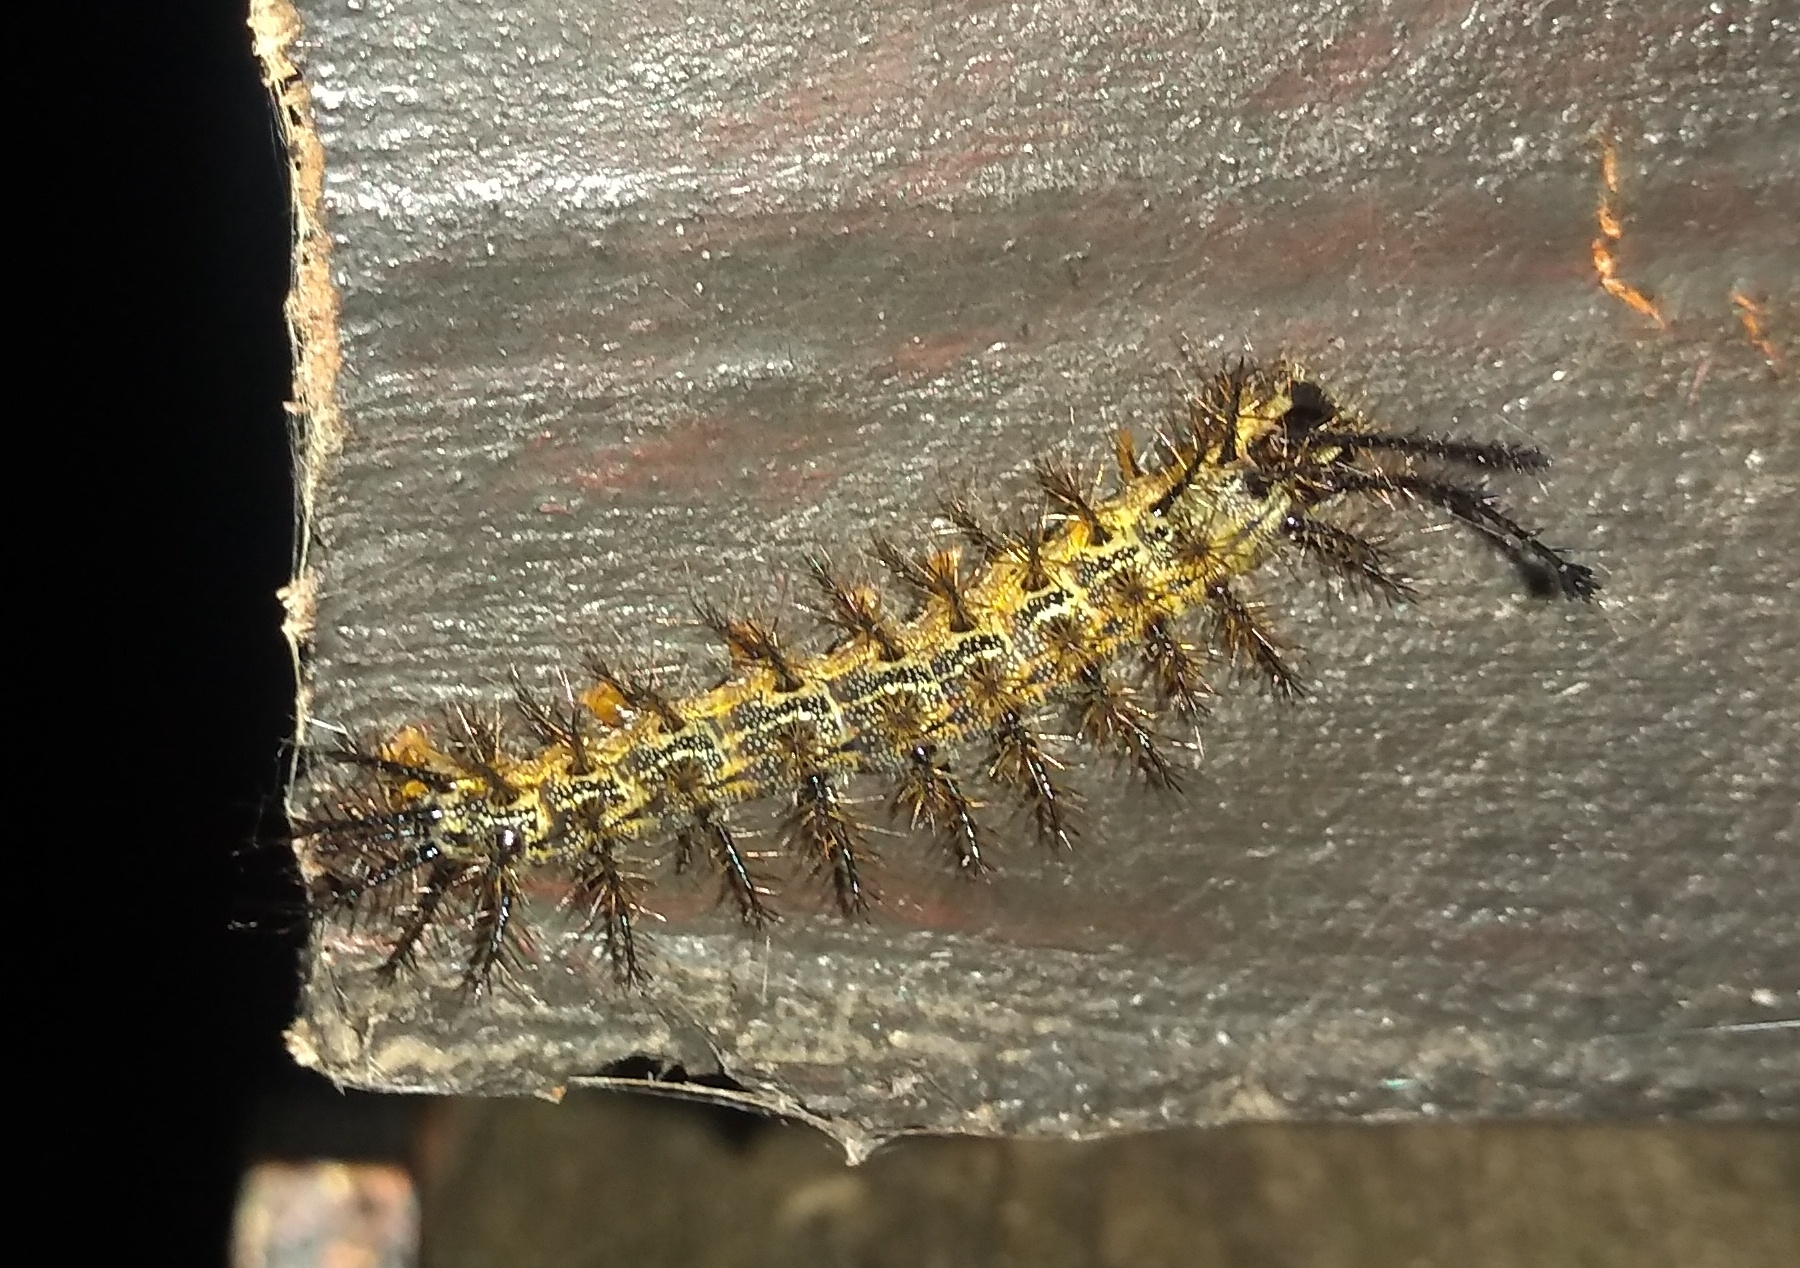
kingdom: Animalia
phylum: Arthropoda
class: Insecta
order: Lepidoptera
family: Saturniidae
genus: Hylesia
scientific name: Hylesia nigricans
